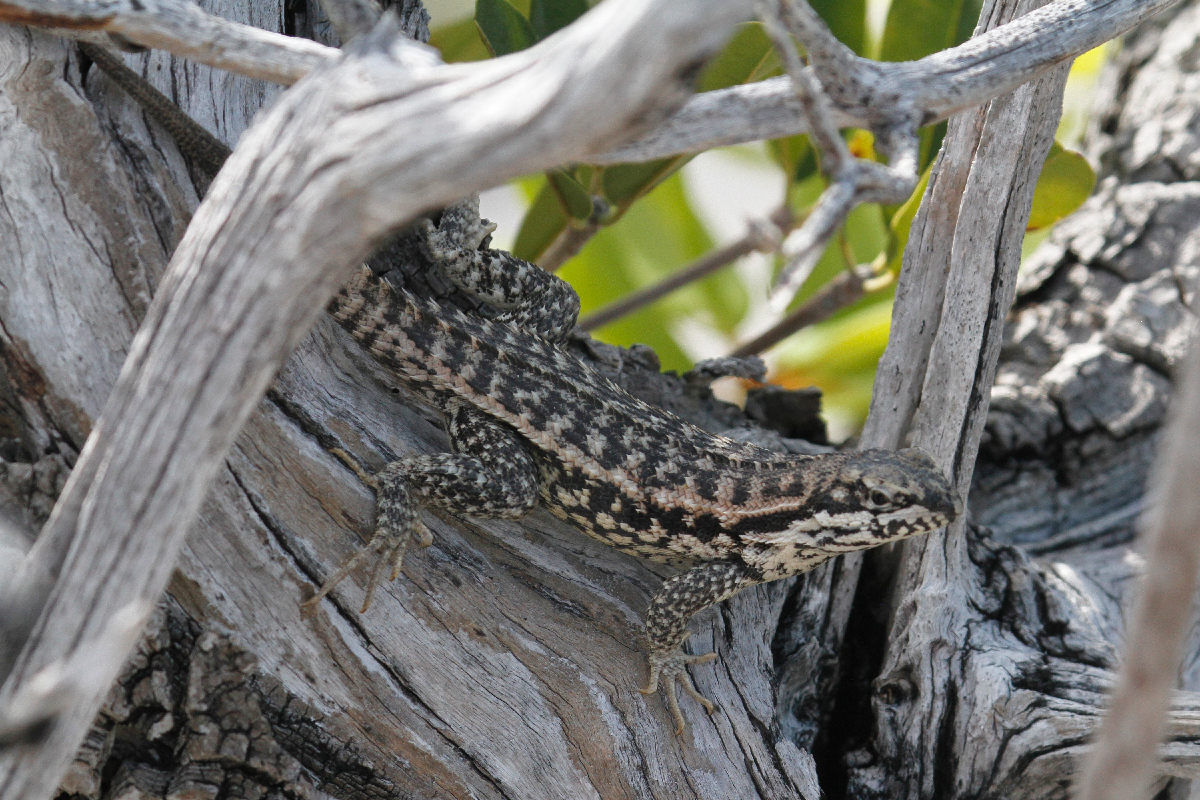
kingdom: Animalia
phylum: Chordata
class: Squamata
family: Leiocephalidae
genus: Leiocephalus
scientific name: Leiocephalus carinatus
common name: Northern curly-tailed lizard
